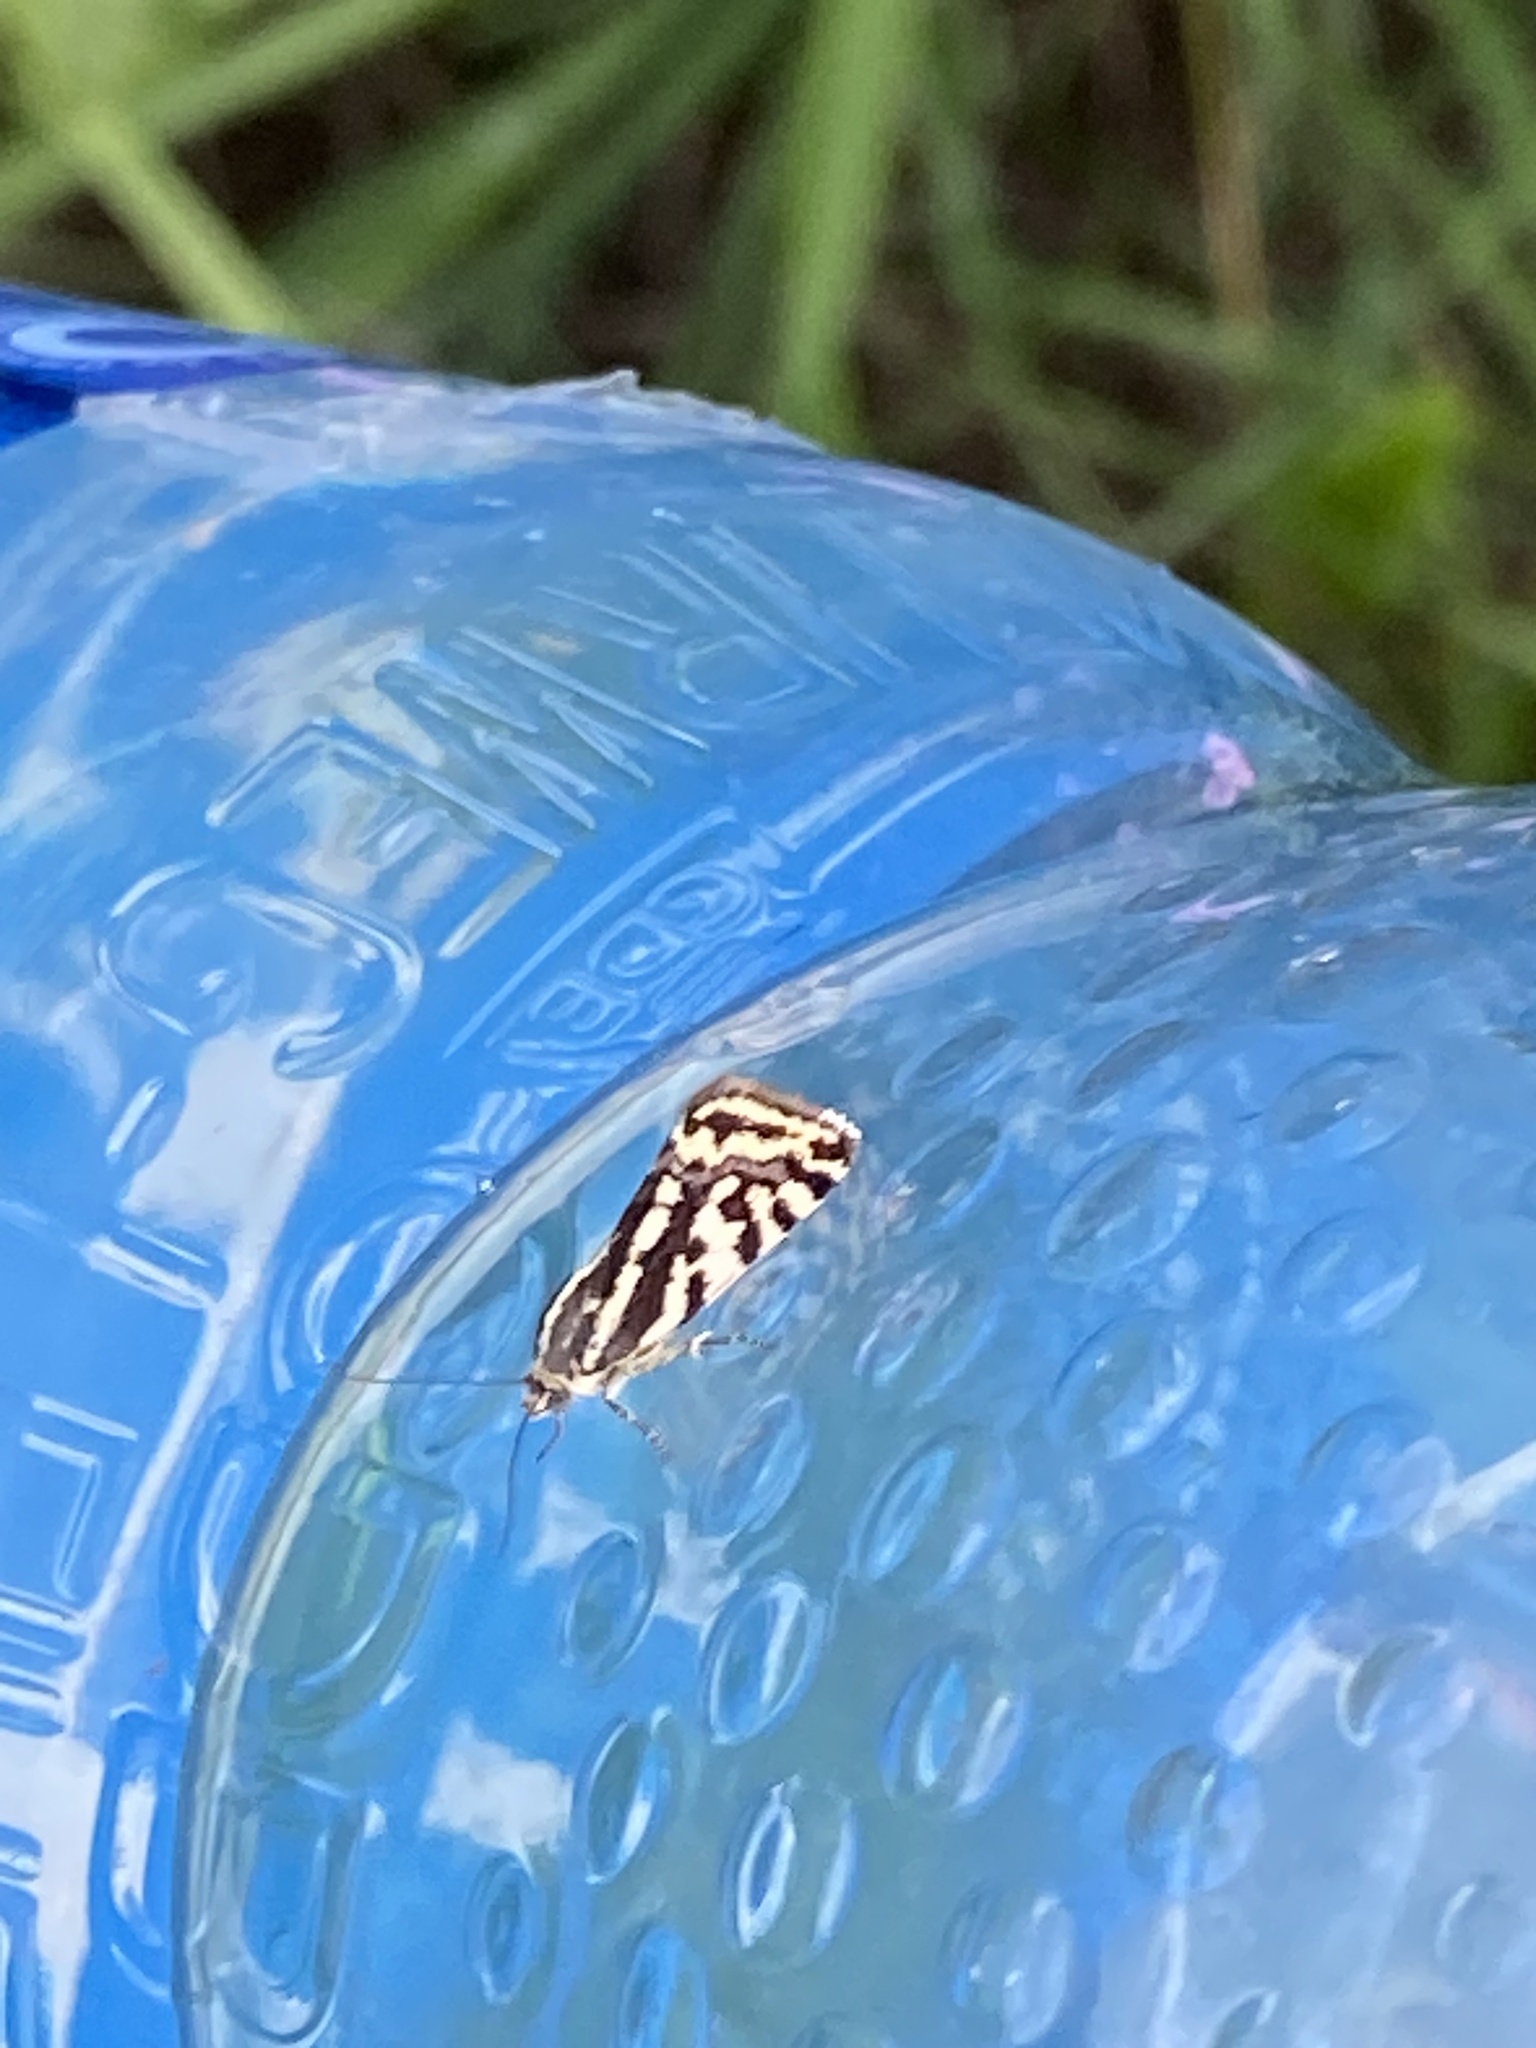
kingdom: Animalia
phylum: Arthropoda
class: Insecta
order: Lepidoptera
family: Noctuidae
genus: Acontia
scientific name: Acontia trabealis
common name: Spotted sulphur
